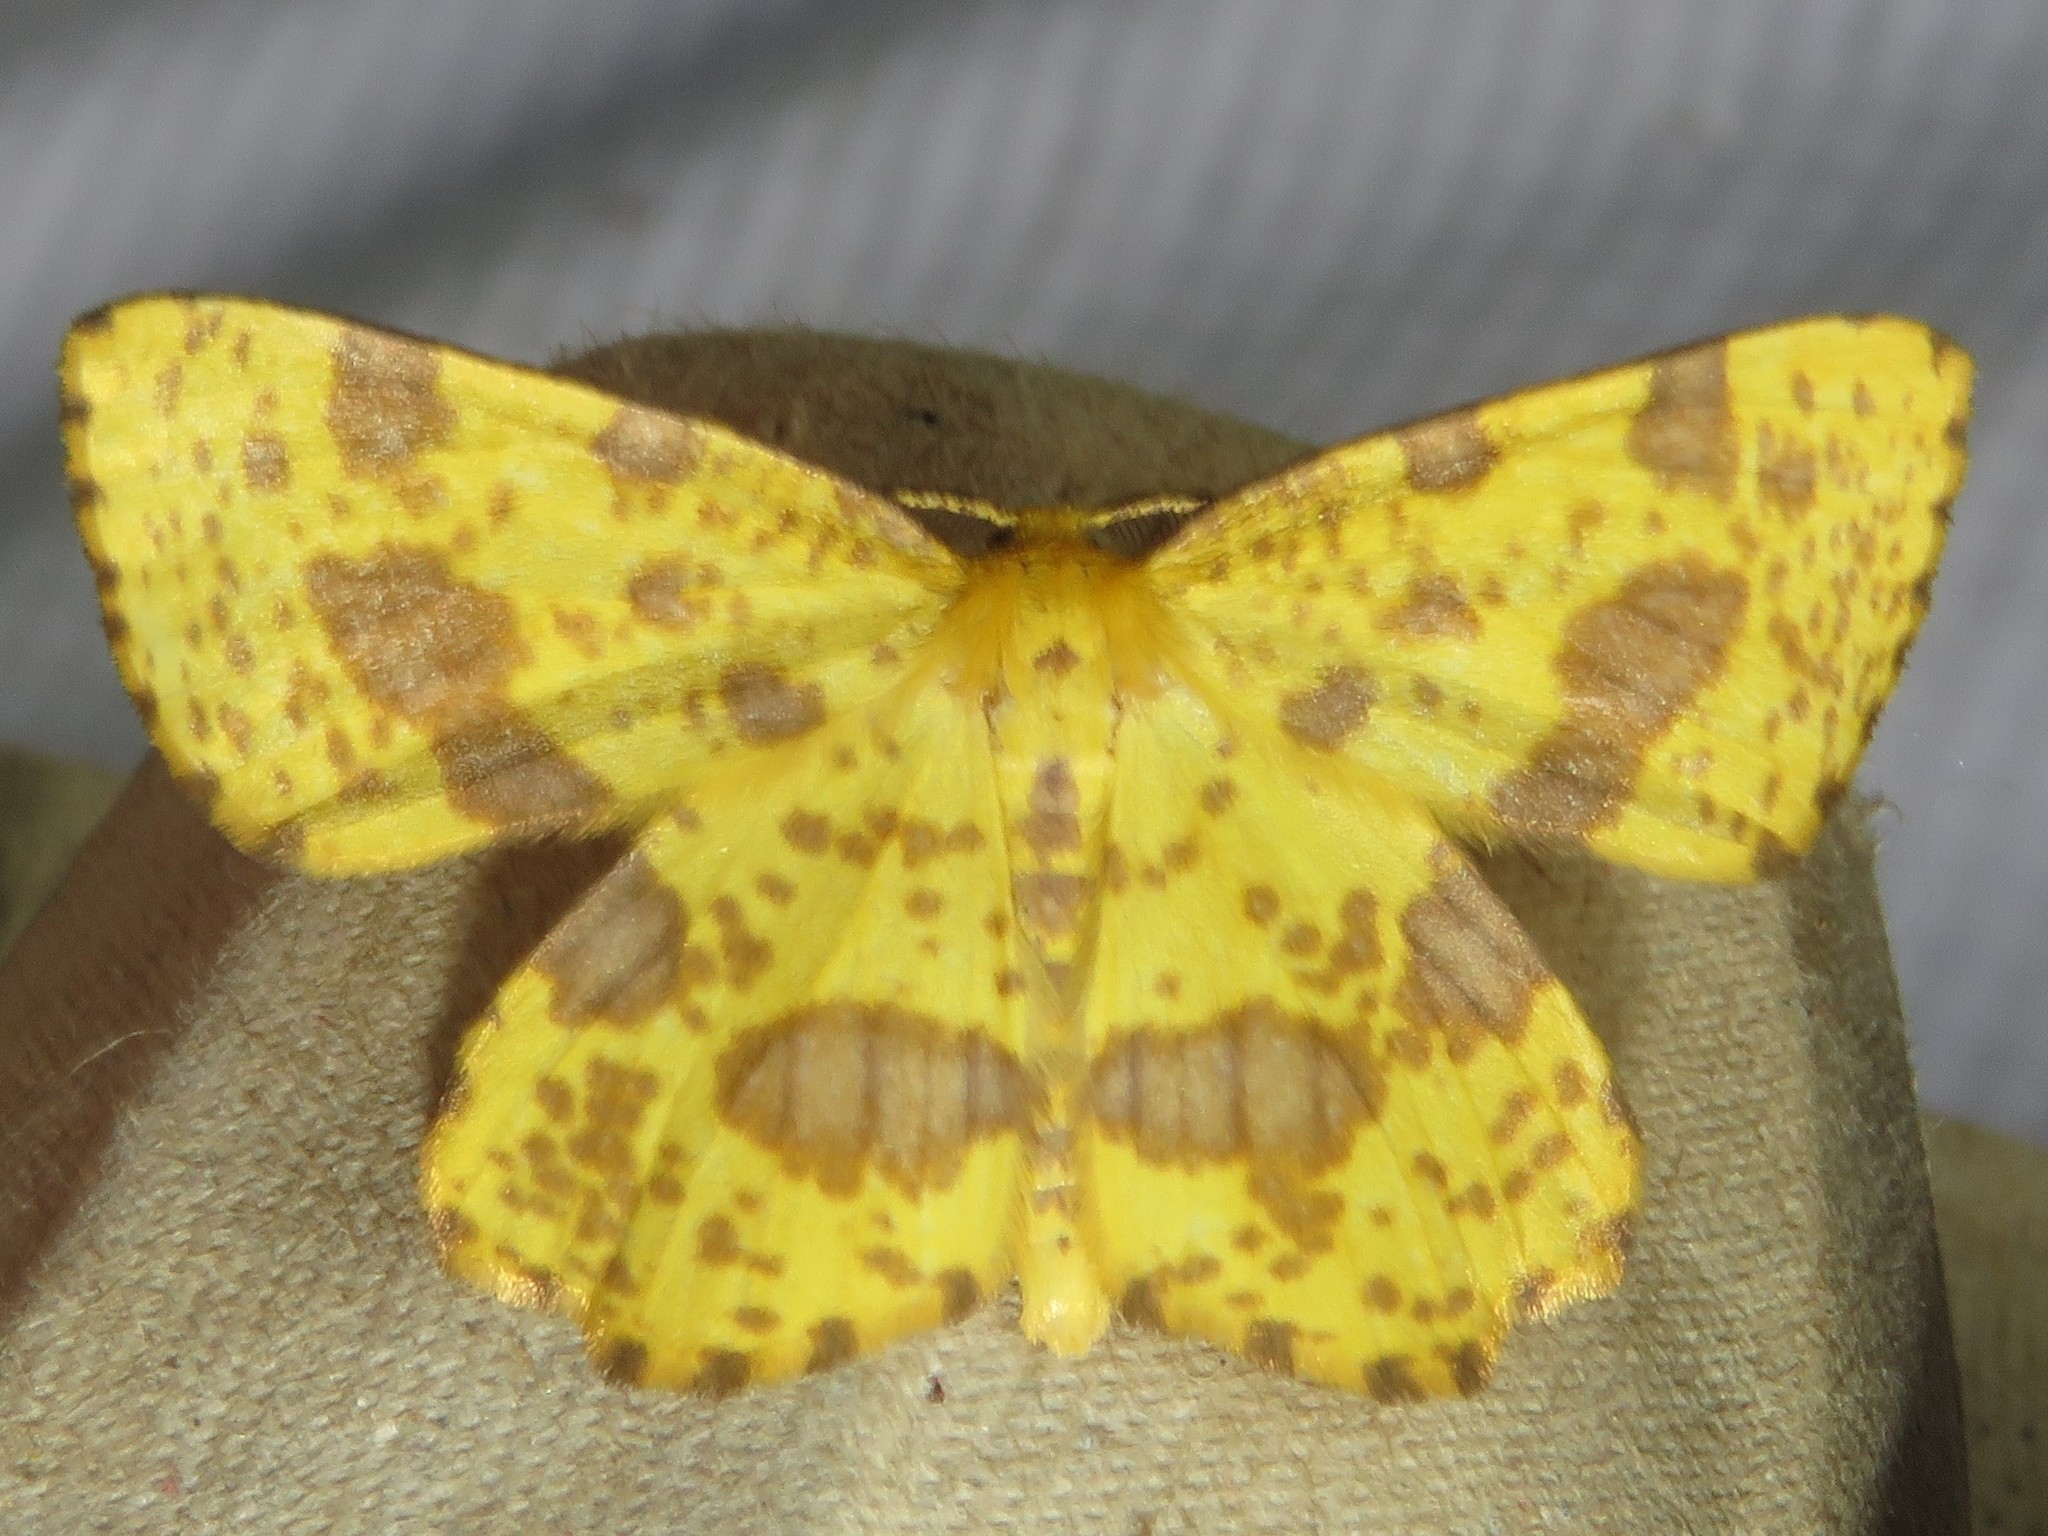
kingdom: Animalia
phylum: Arthropoda
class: Insecta
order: Lepidoptera
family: Geometridae
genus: Xanthotype
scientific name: Xanthotype
